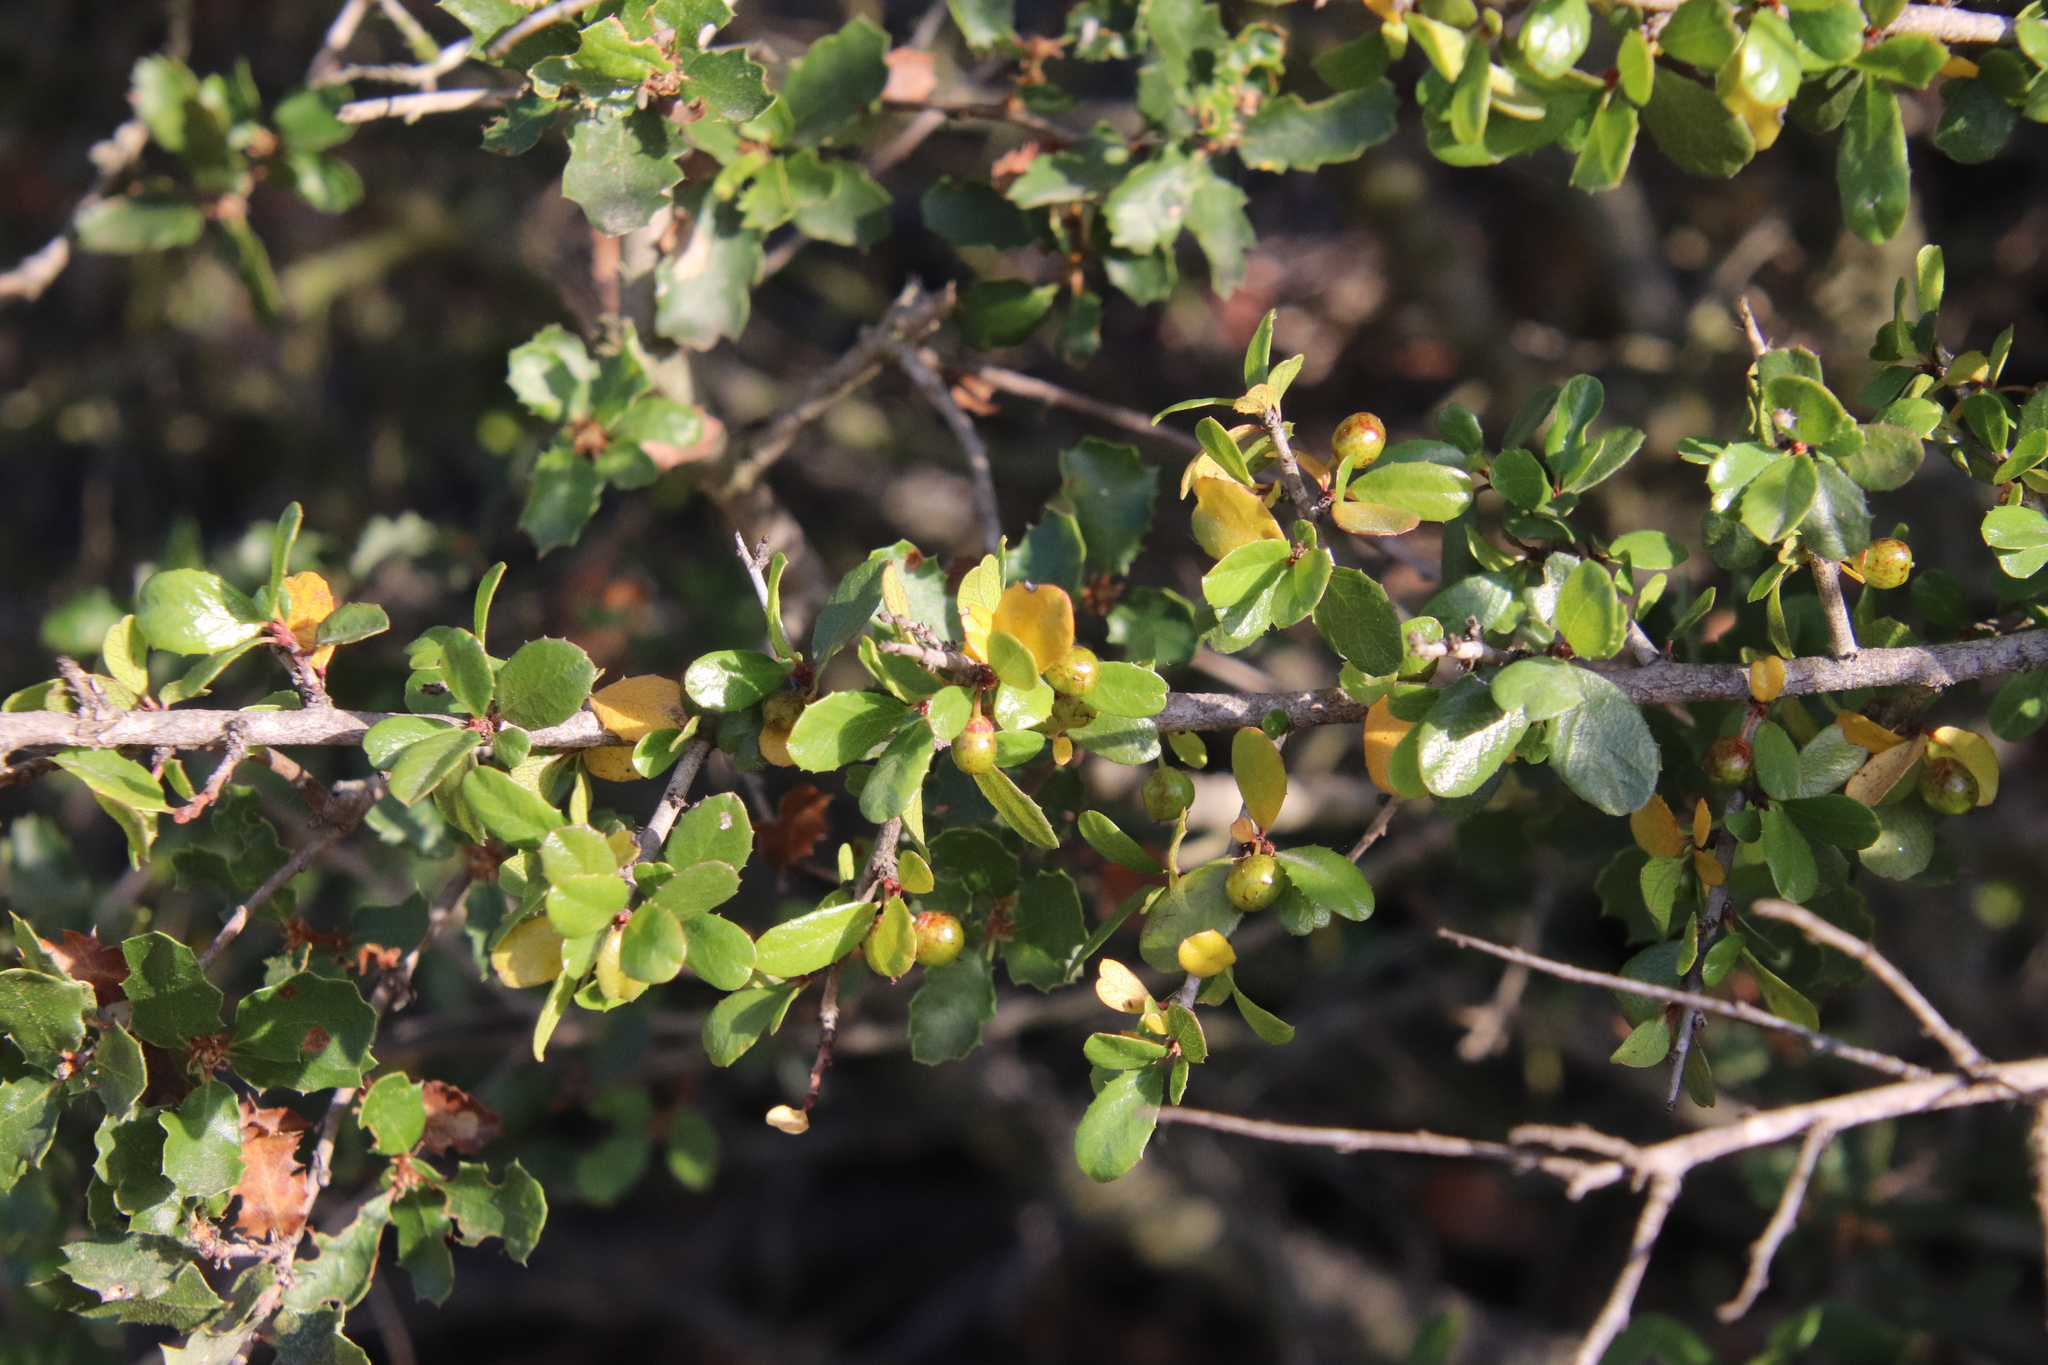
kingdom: Plantae
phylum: Tracheophyta
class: Magnoliopsida
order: Rosales
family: Rhamnaceae
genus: Endotropis
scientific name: Endotropis crocea
